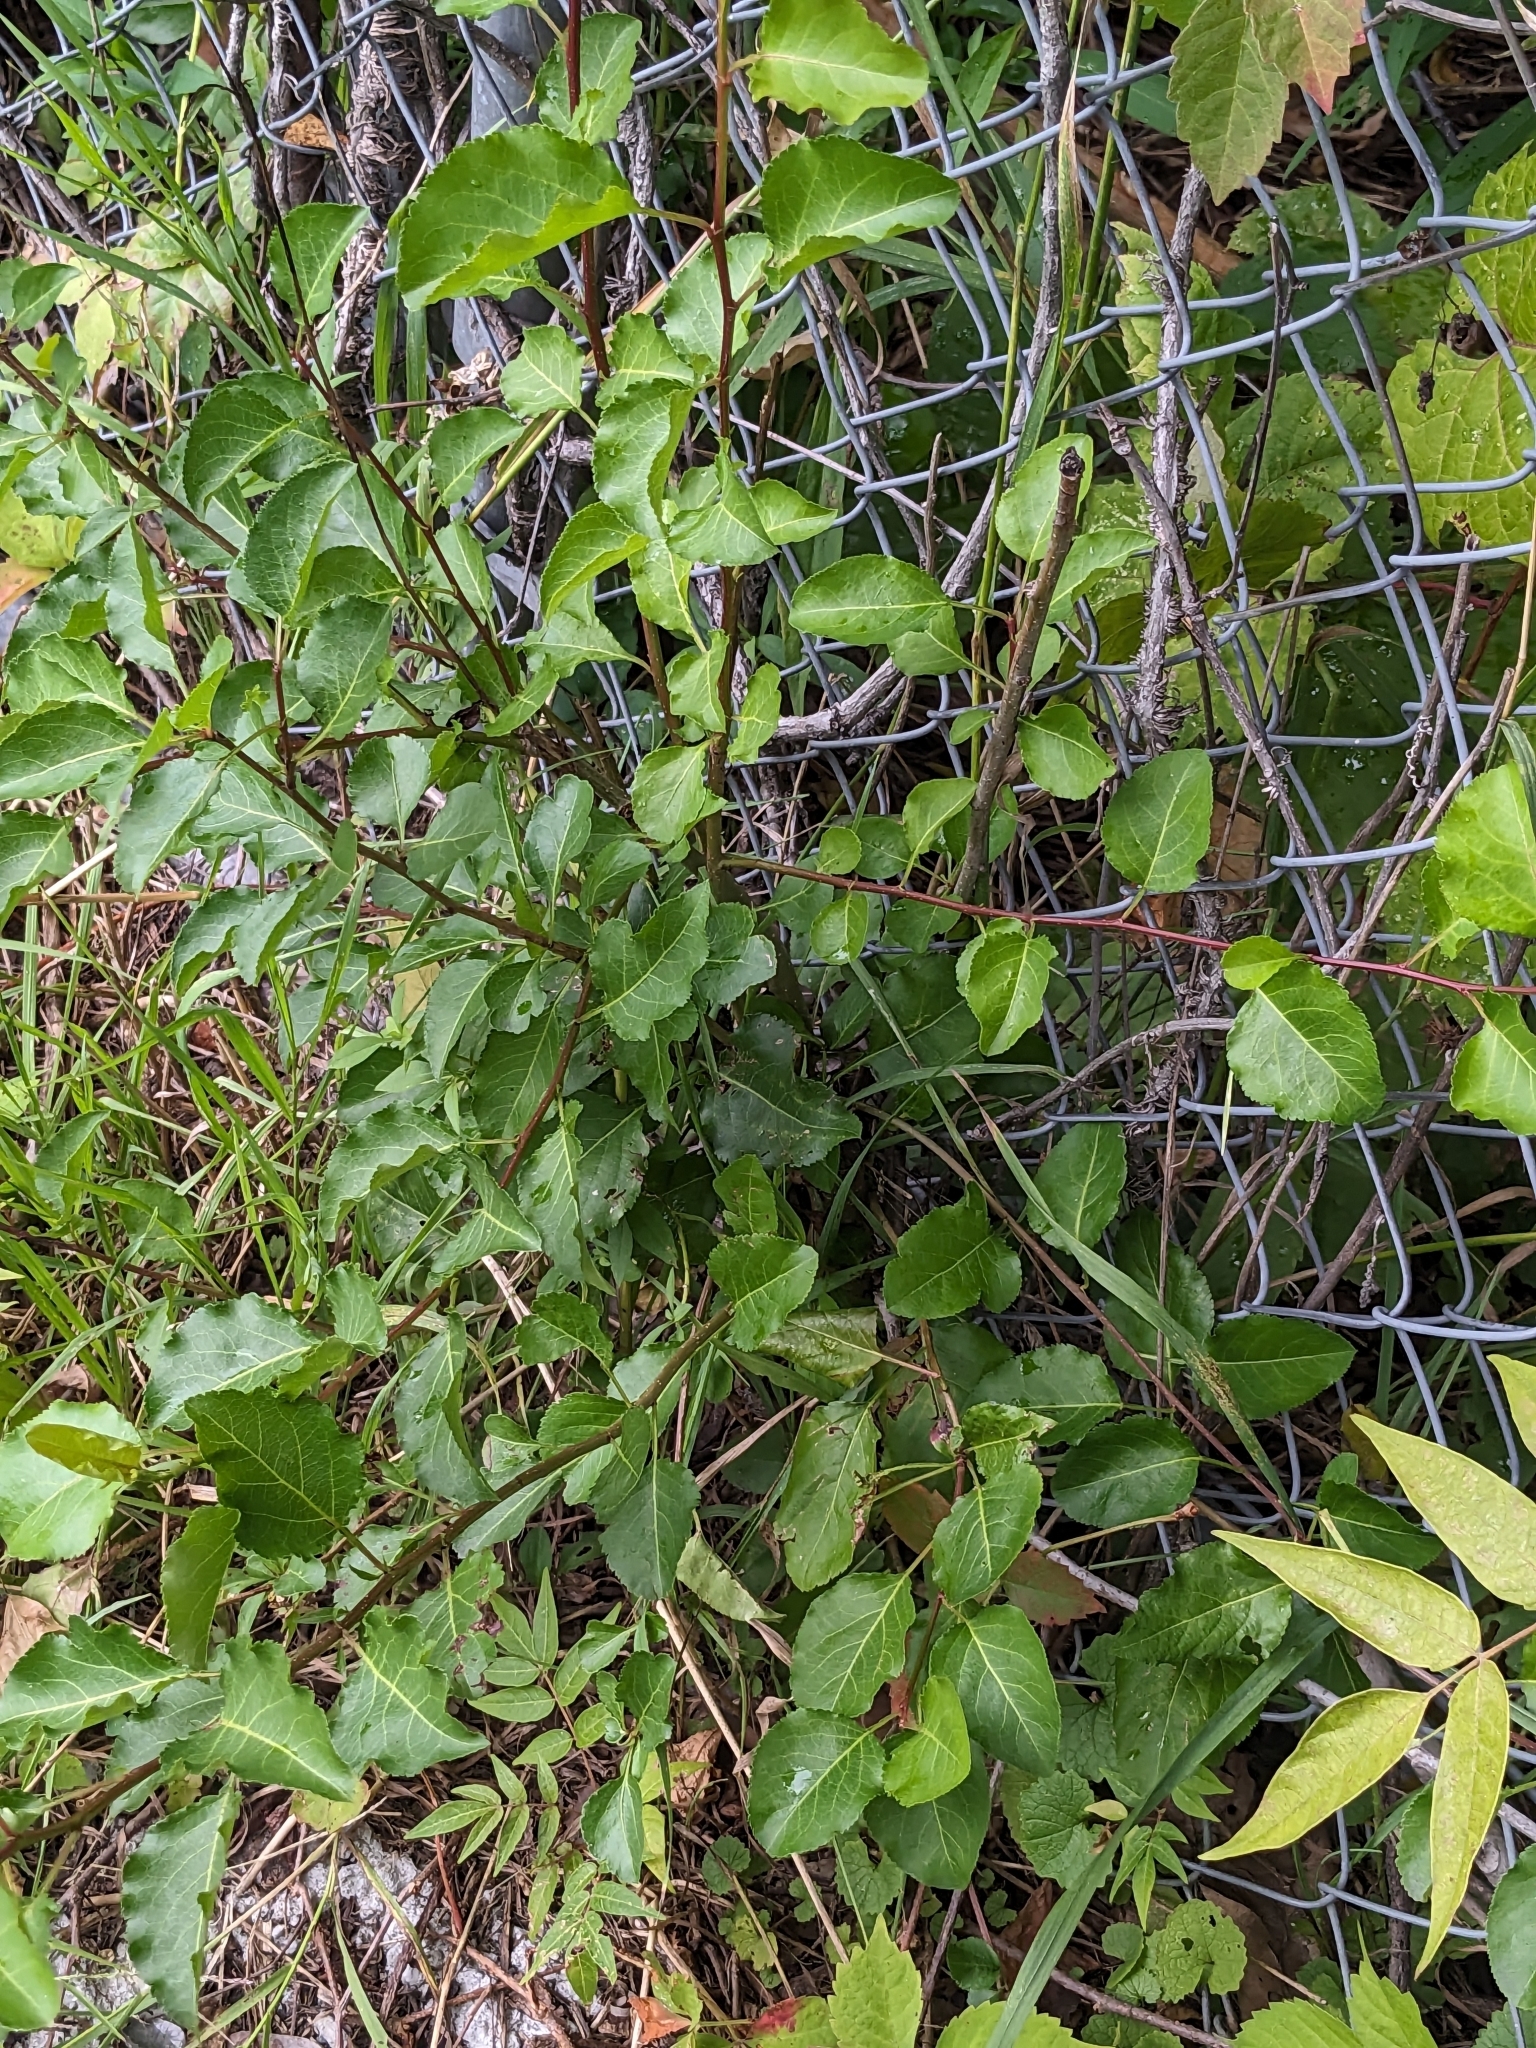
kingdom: Plantae
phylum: Tracheophyta
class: Magnoliopsida
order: Rosales
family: Rosaceae
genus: Pyrus
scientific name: Pyrus calleryana
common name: Callery pear
